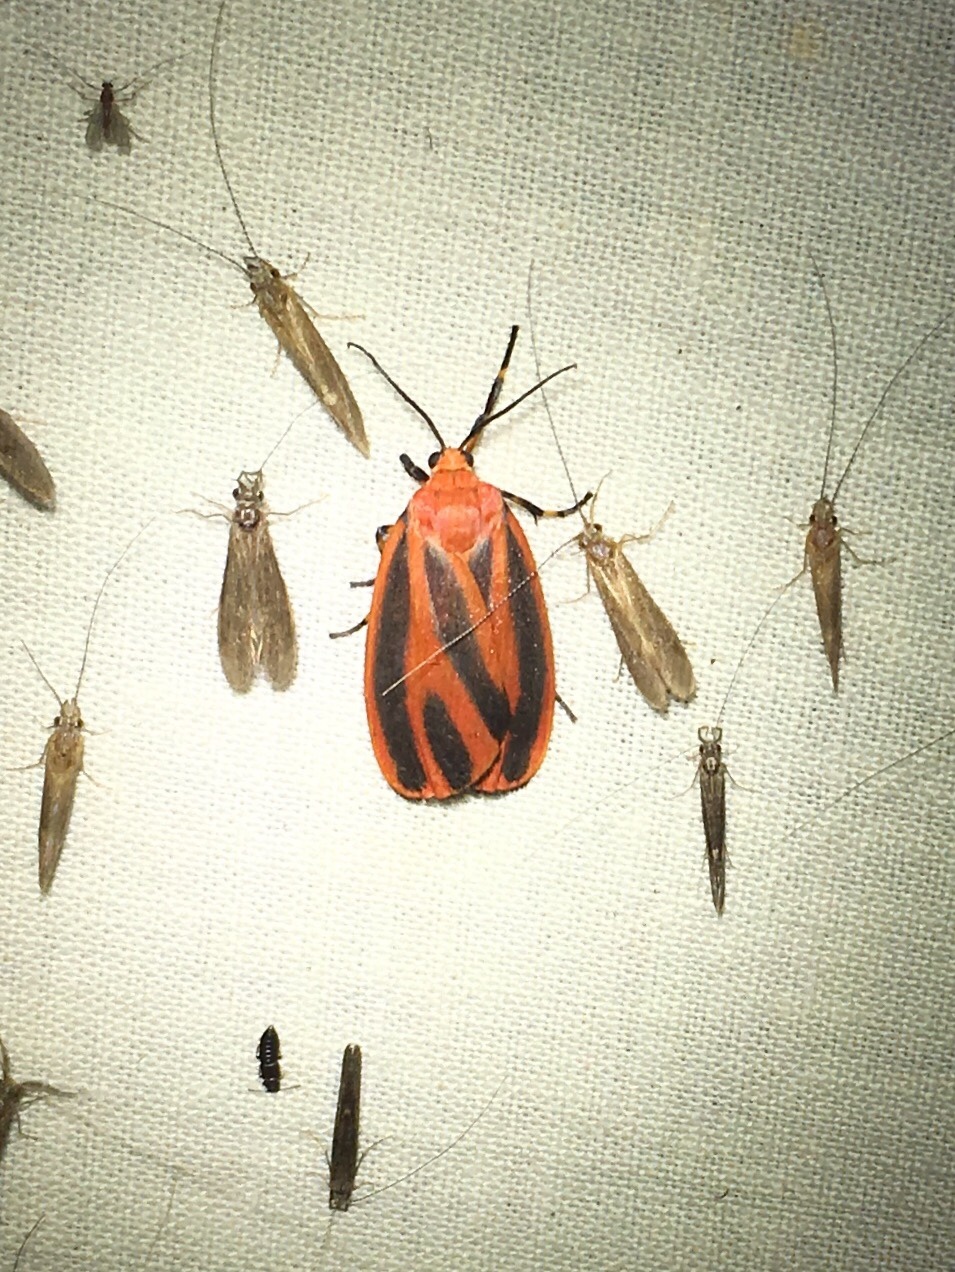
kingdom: Animalia
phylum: Arthropoda
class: Insecta
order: Lepidoptera
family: Erebidae
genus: Hypoprepia
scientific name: Hypoprepia miniata
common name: Scarlet-winged lichen moth
